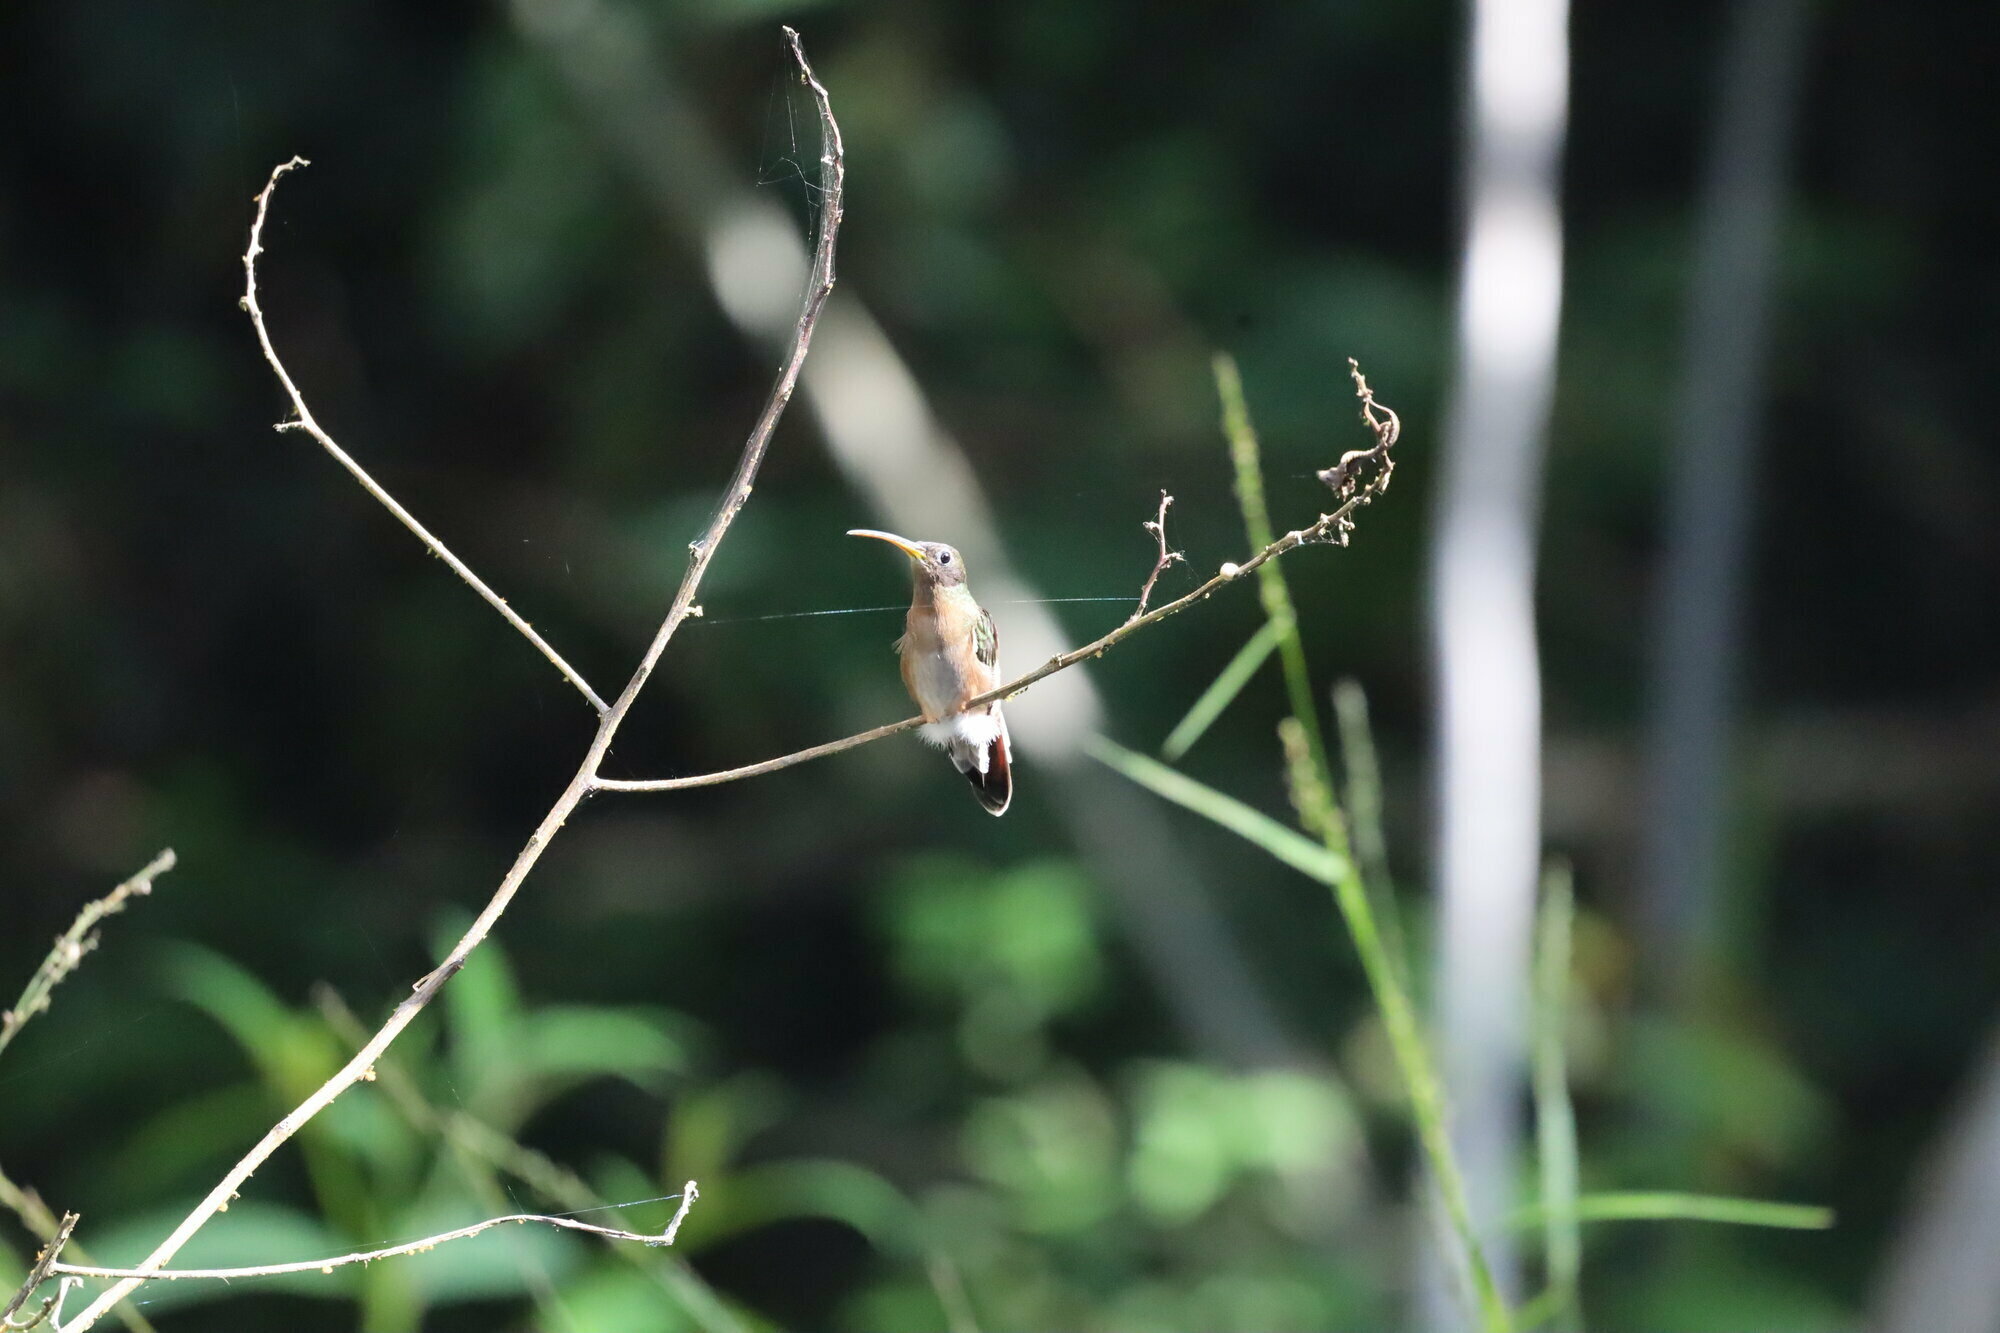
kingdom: Animalia
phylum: Chordata
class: Aves
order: Apodiformes
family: Trochilidae
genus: Glaucis
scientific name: Glaucis hirsutus
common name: Rufous-breasted hermit
